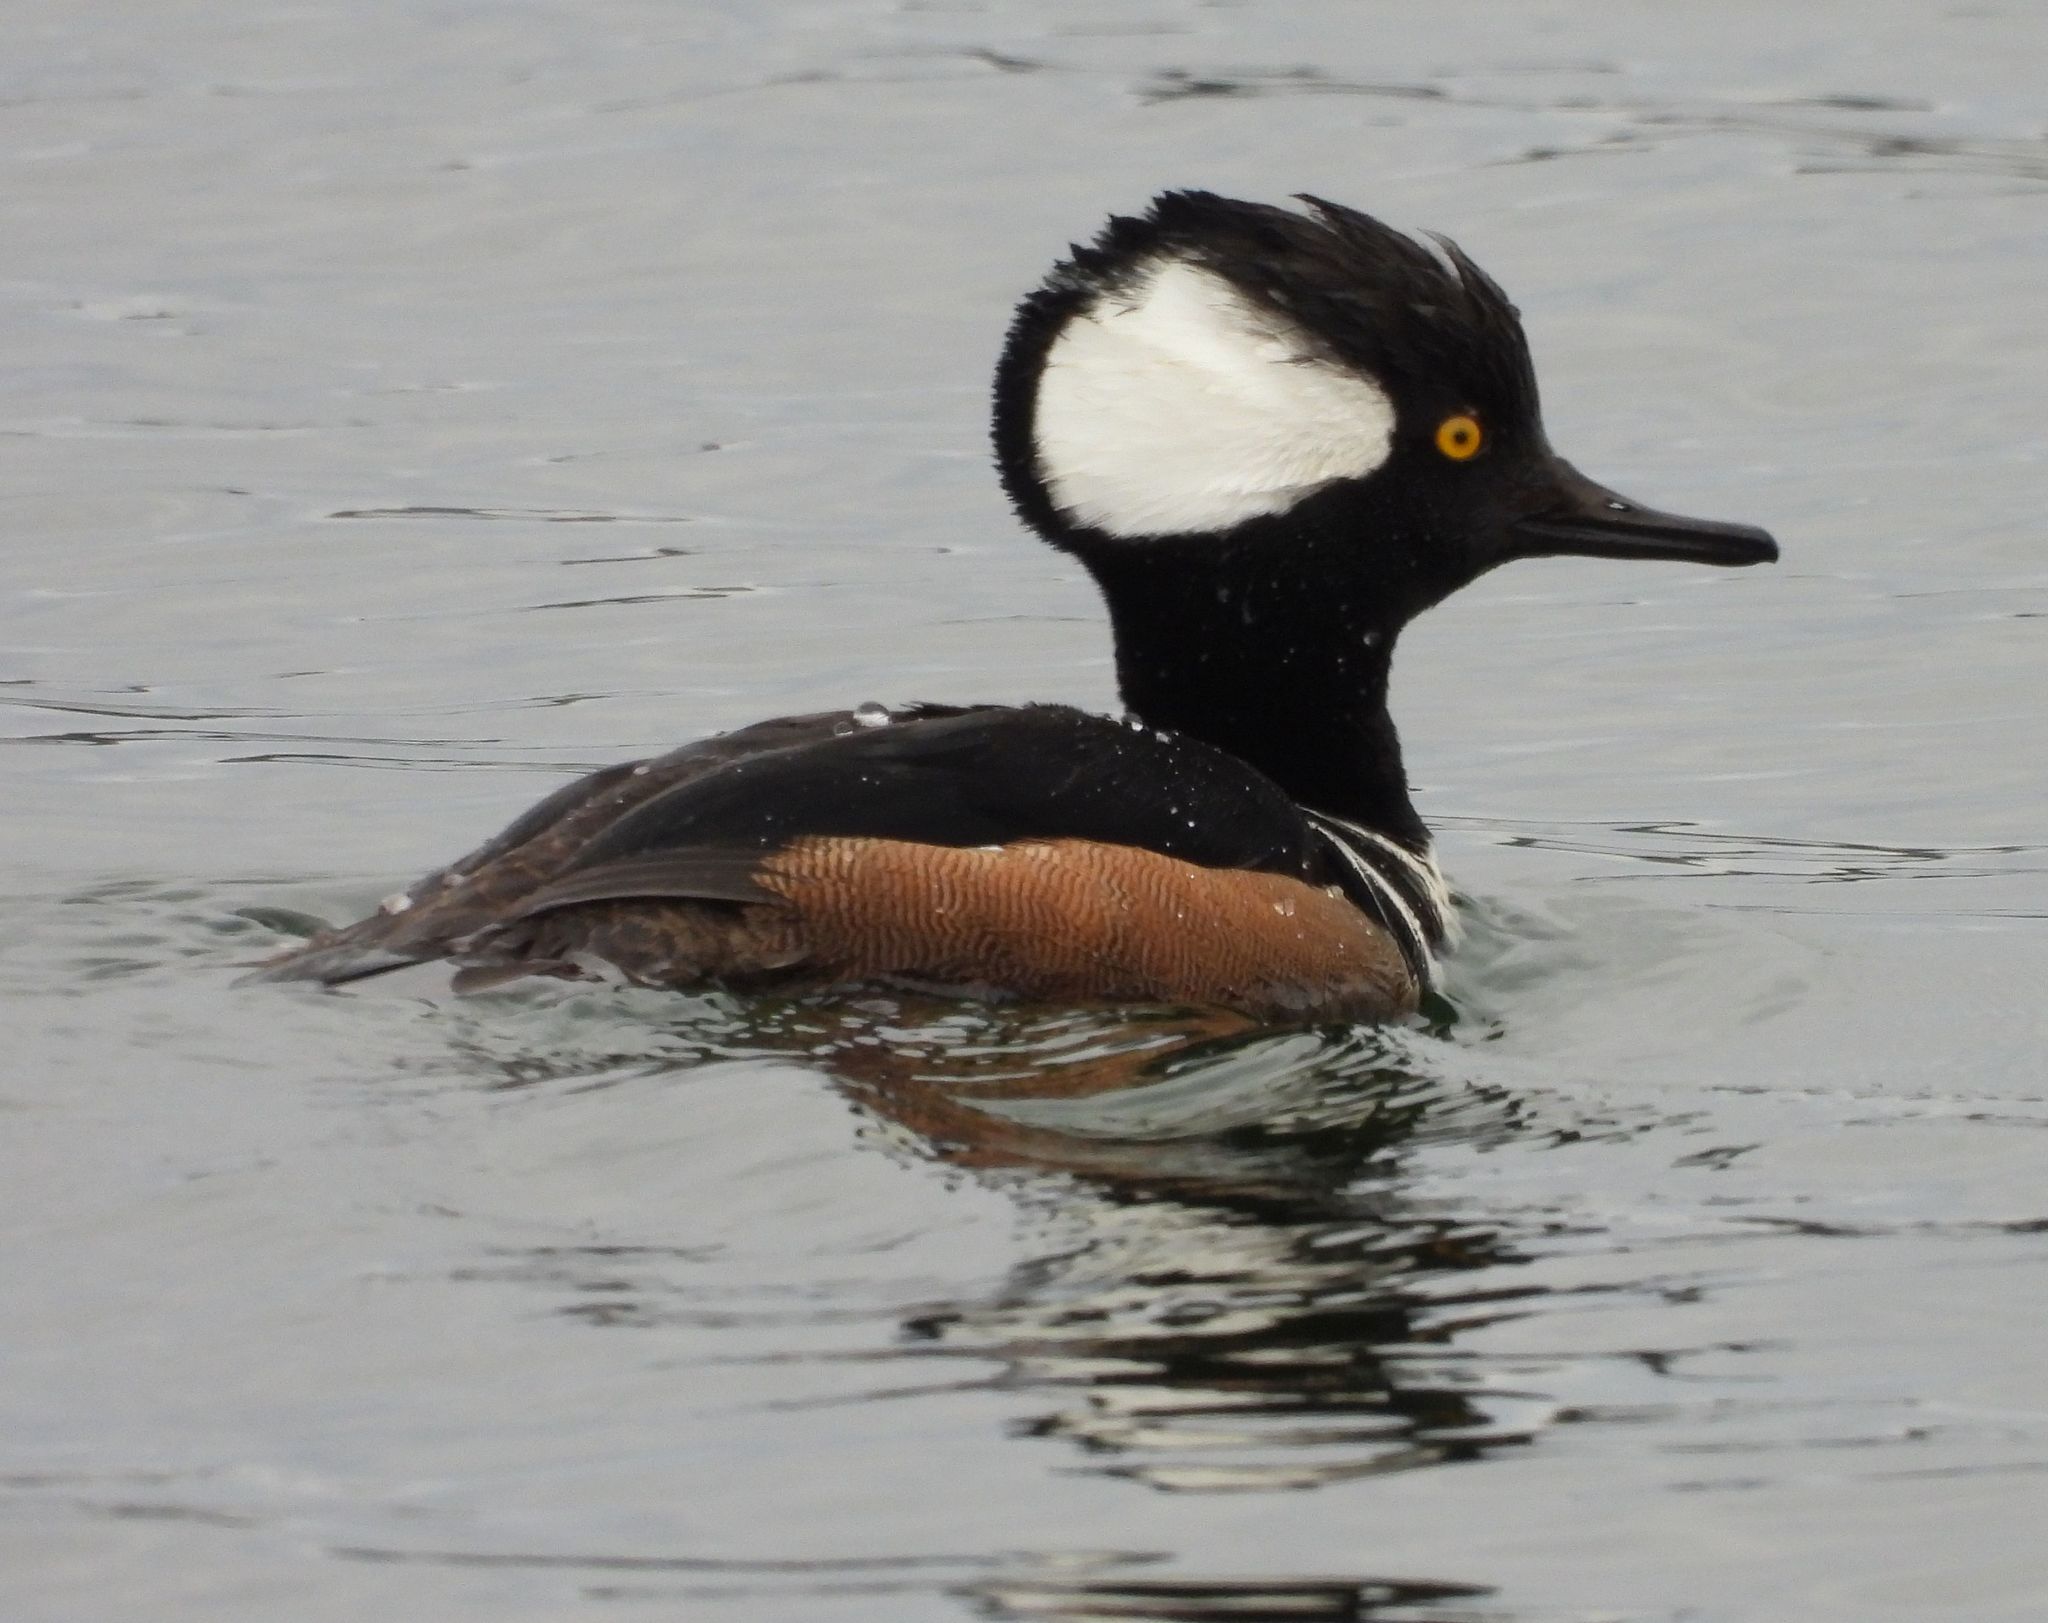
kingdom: Animalia
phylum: Chordata
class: Aves
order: Anseriformes
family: Anatidae
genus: Lophodytes
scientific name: Lophodytes cucullatus
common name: Hooded merganser
